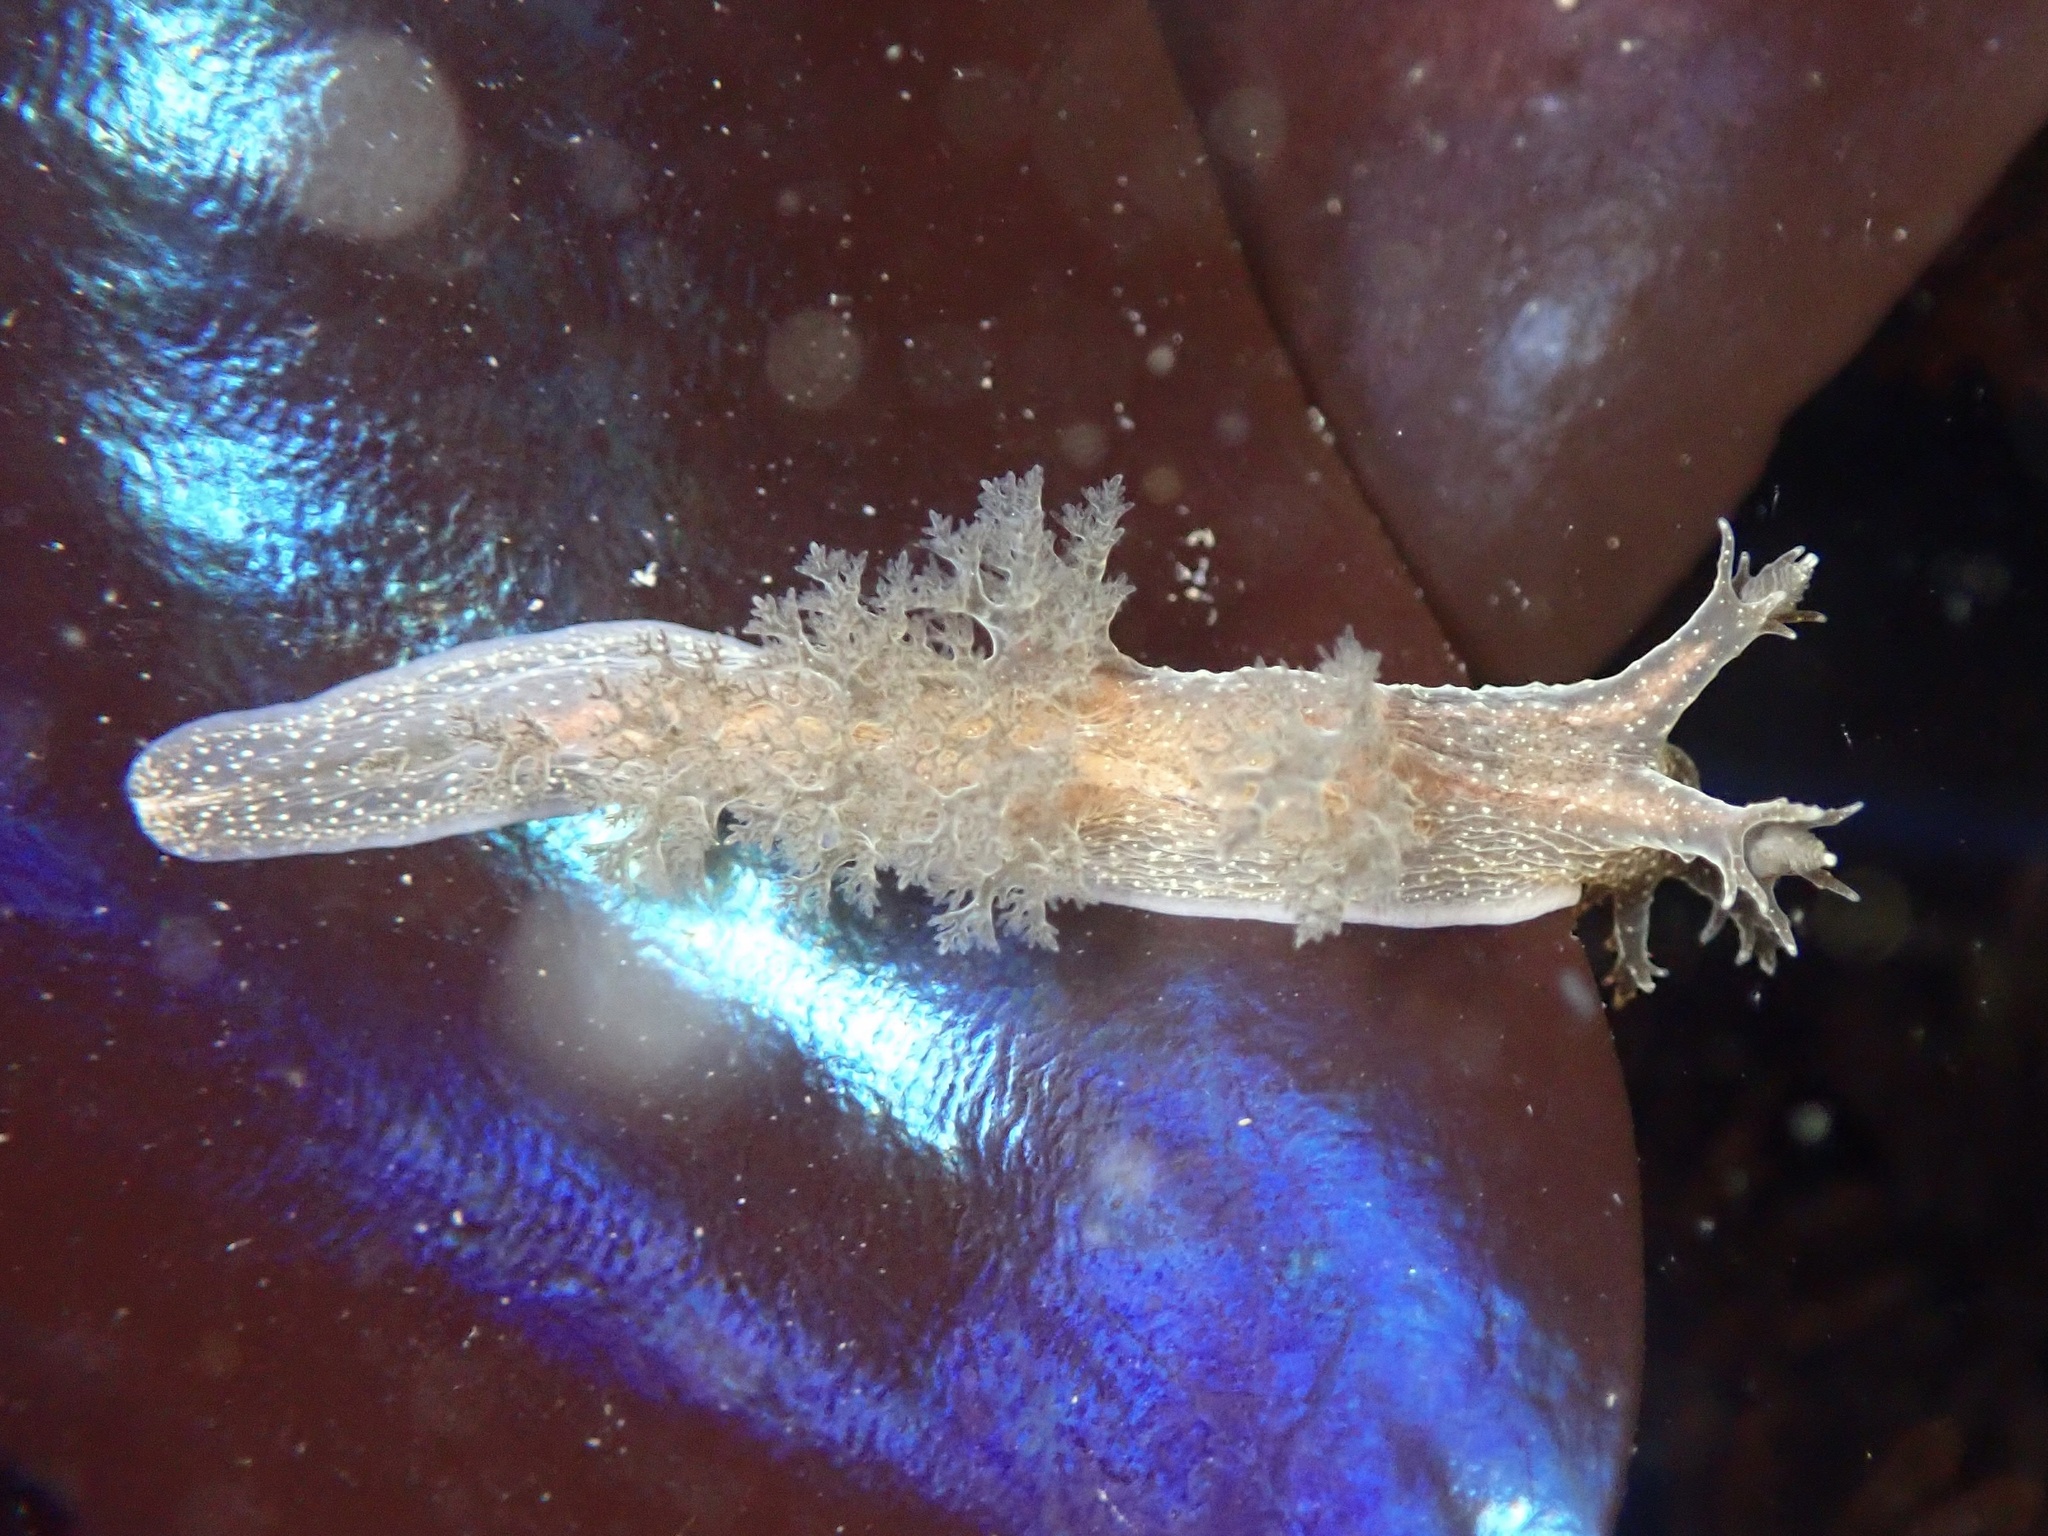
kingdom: Animalia
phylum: Mollusca
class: Gastropoda
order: Nudibranchia
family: Dendronotidae
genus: Dendronotus
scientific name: Dendronotus subramosus
